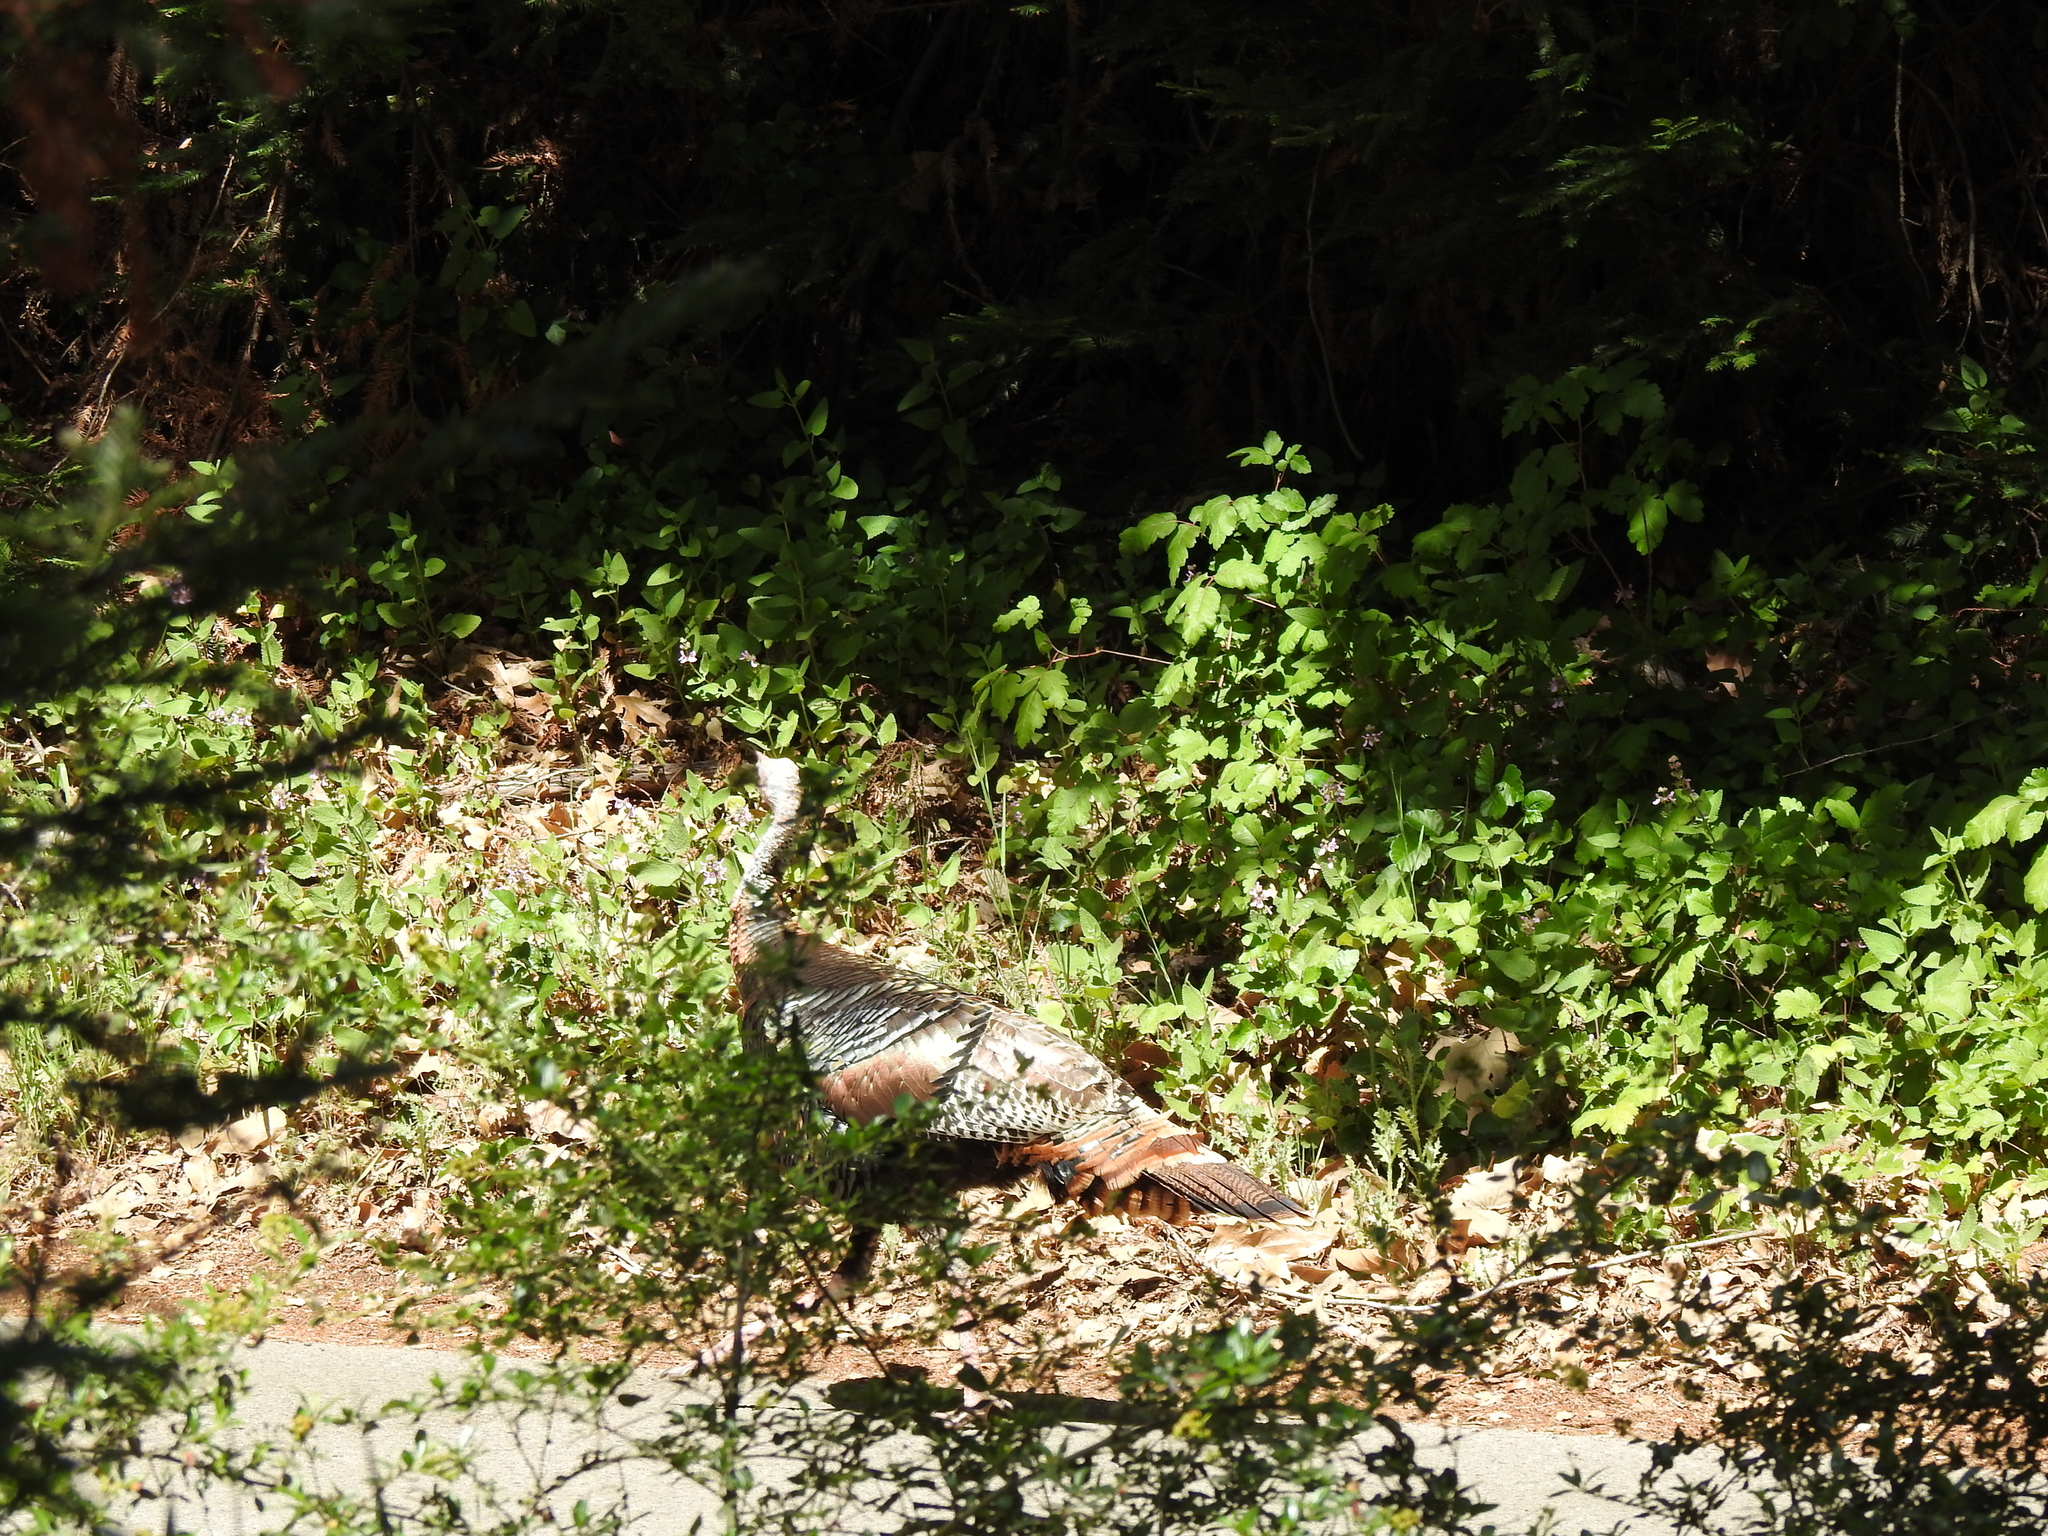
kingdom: Animalia
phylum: Chordata
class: Aves
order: Galliformes
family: Phasianidae
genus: Meleagris
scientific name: Meleagris gallopavo
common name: Wild turkey
